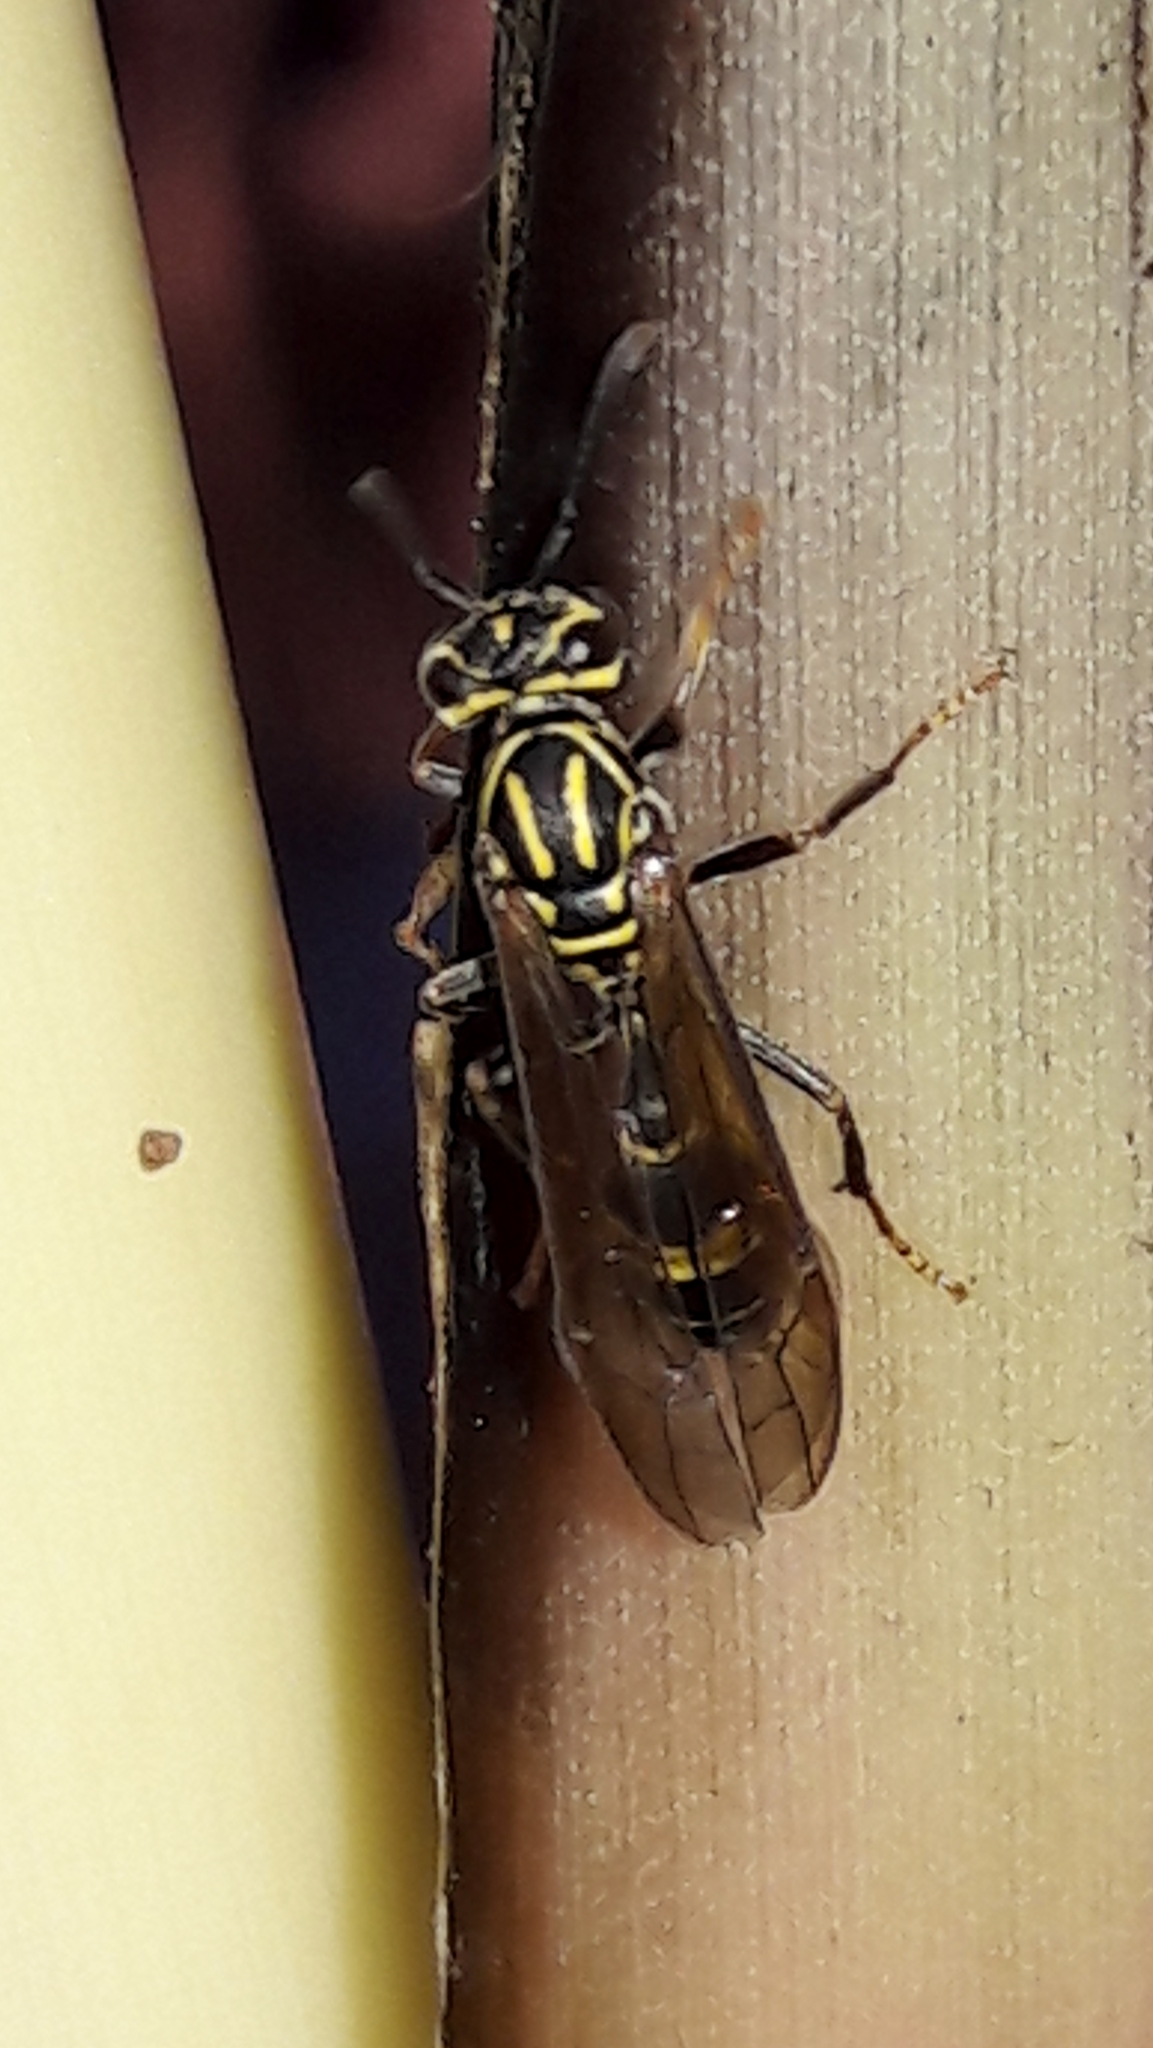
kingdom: Animalia
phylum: Arthropoda
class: Insecta
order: Hymenoptera
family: Eumenidae
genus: Polybia
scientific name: Polybia fastidiosuscula
